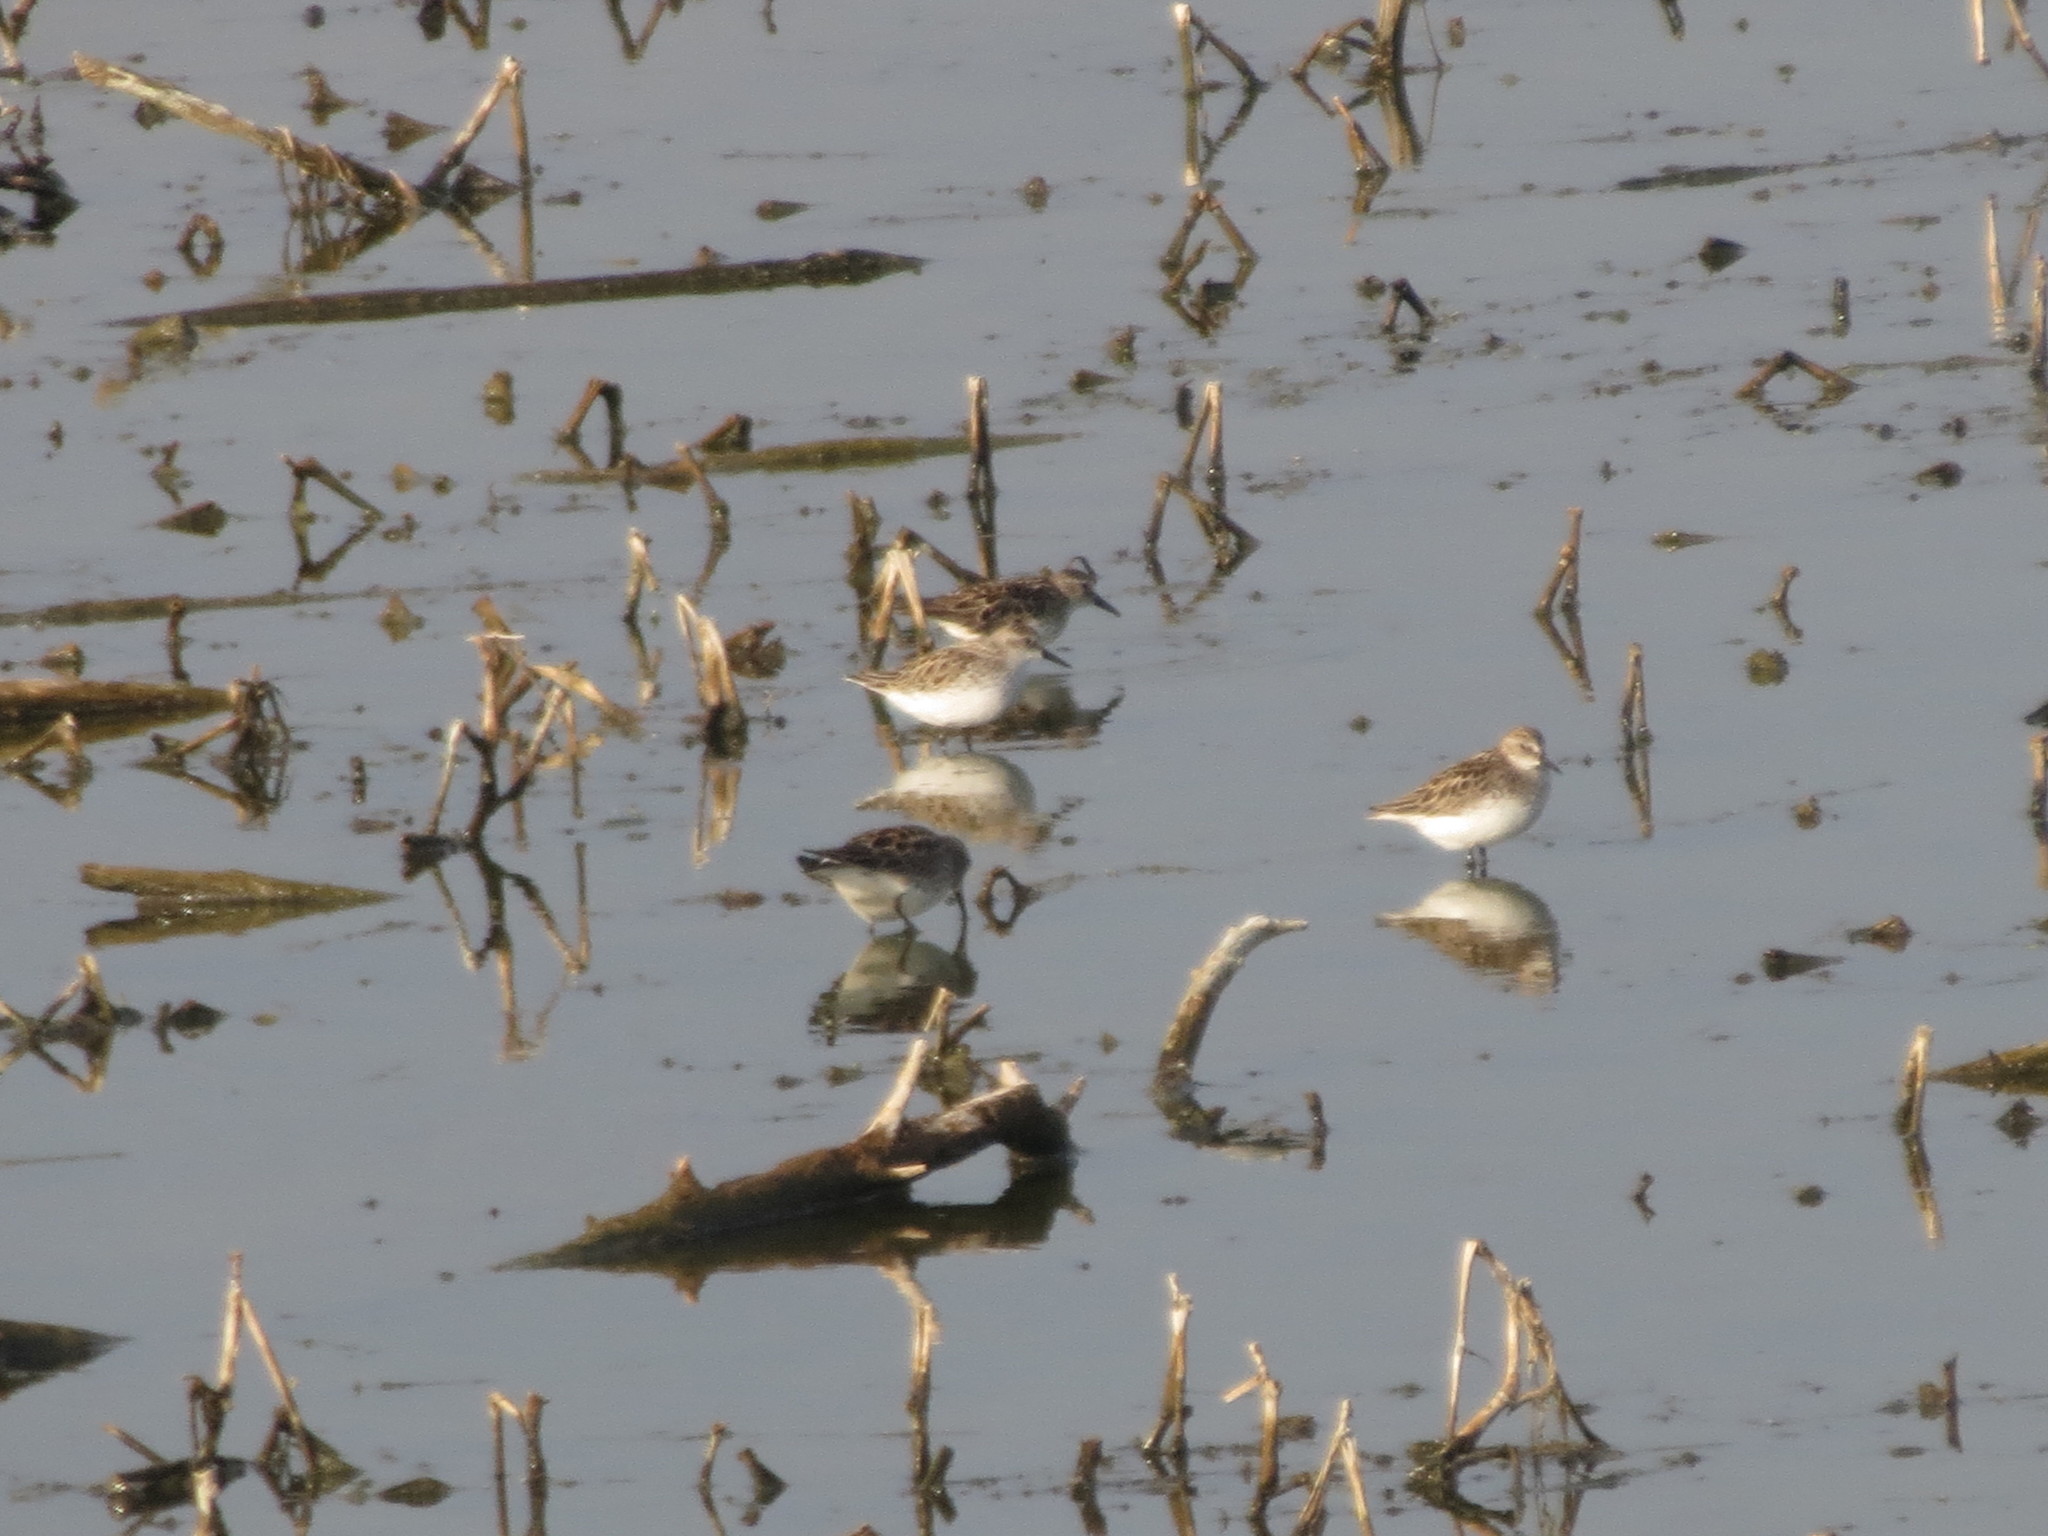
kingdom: Animalia
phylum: Chordata
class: Aves
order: Charadriiformes
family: Scolopacidae
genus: Calidris
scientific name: Calidris pusilla
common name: Semipalmated sandpiper
